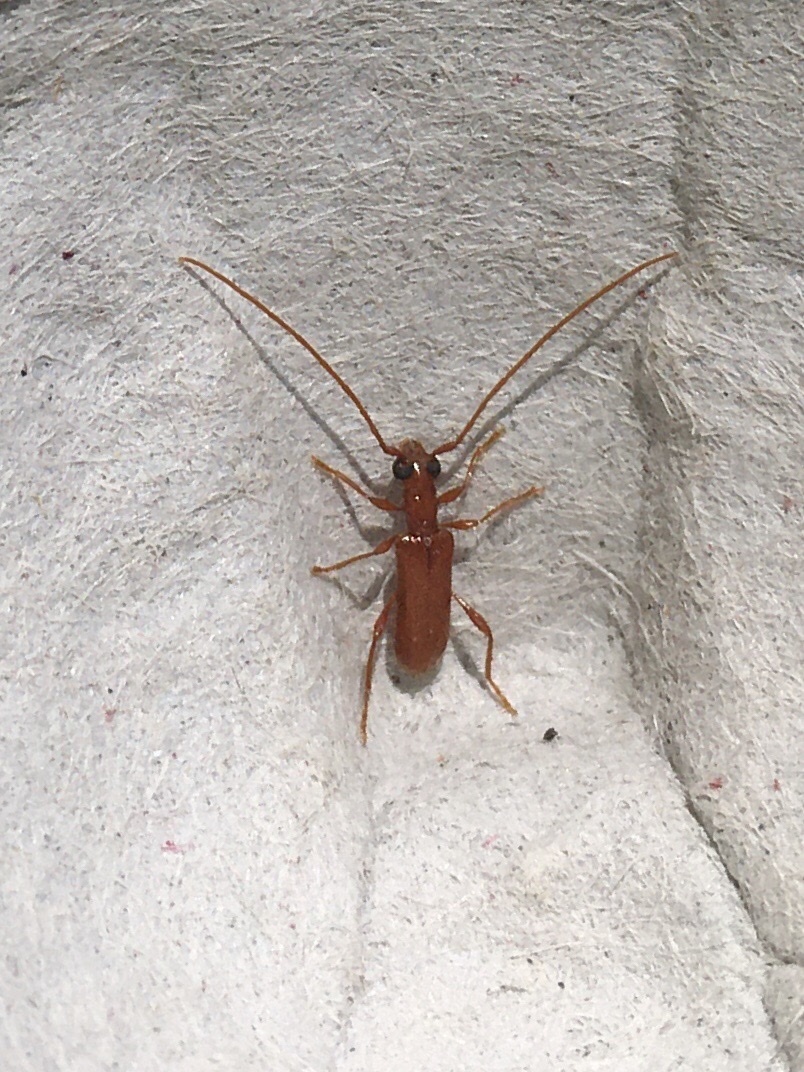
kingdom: Animalia
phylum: Arthropoda
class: Insecta
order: Coleoptera
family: Cerambycidae
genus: Obrium
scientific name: Obrium rufulum
